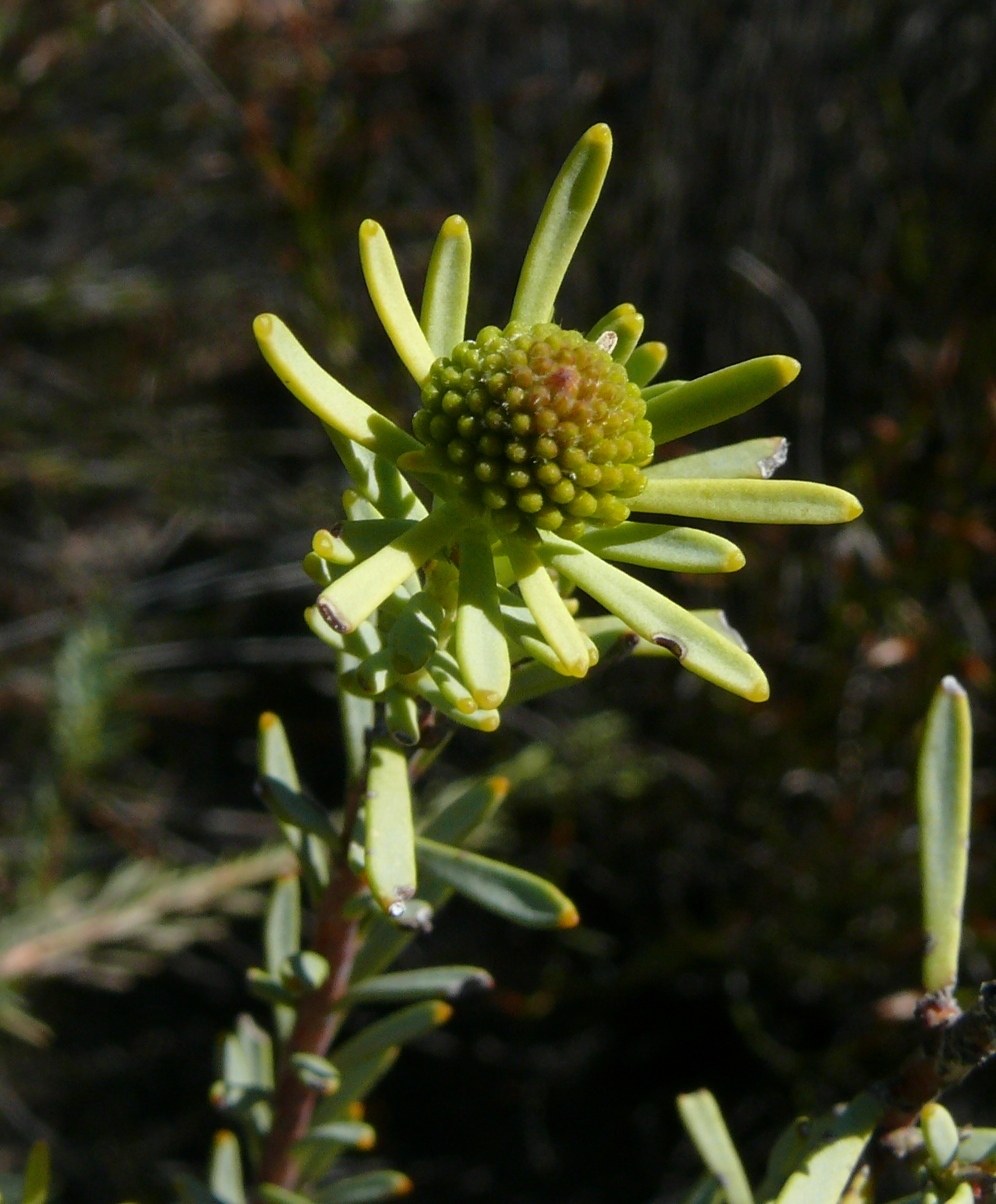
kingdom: Plantae
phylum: Tracheophyta
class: Magnoliopsida
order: Proteales
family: Proteaceae
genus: Leucadendron
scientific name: Leucadendron brunioides
